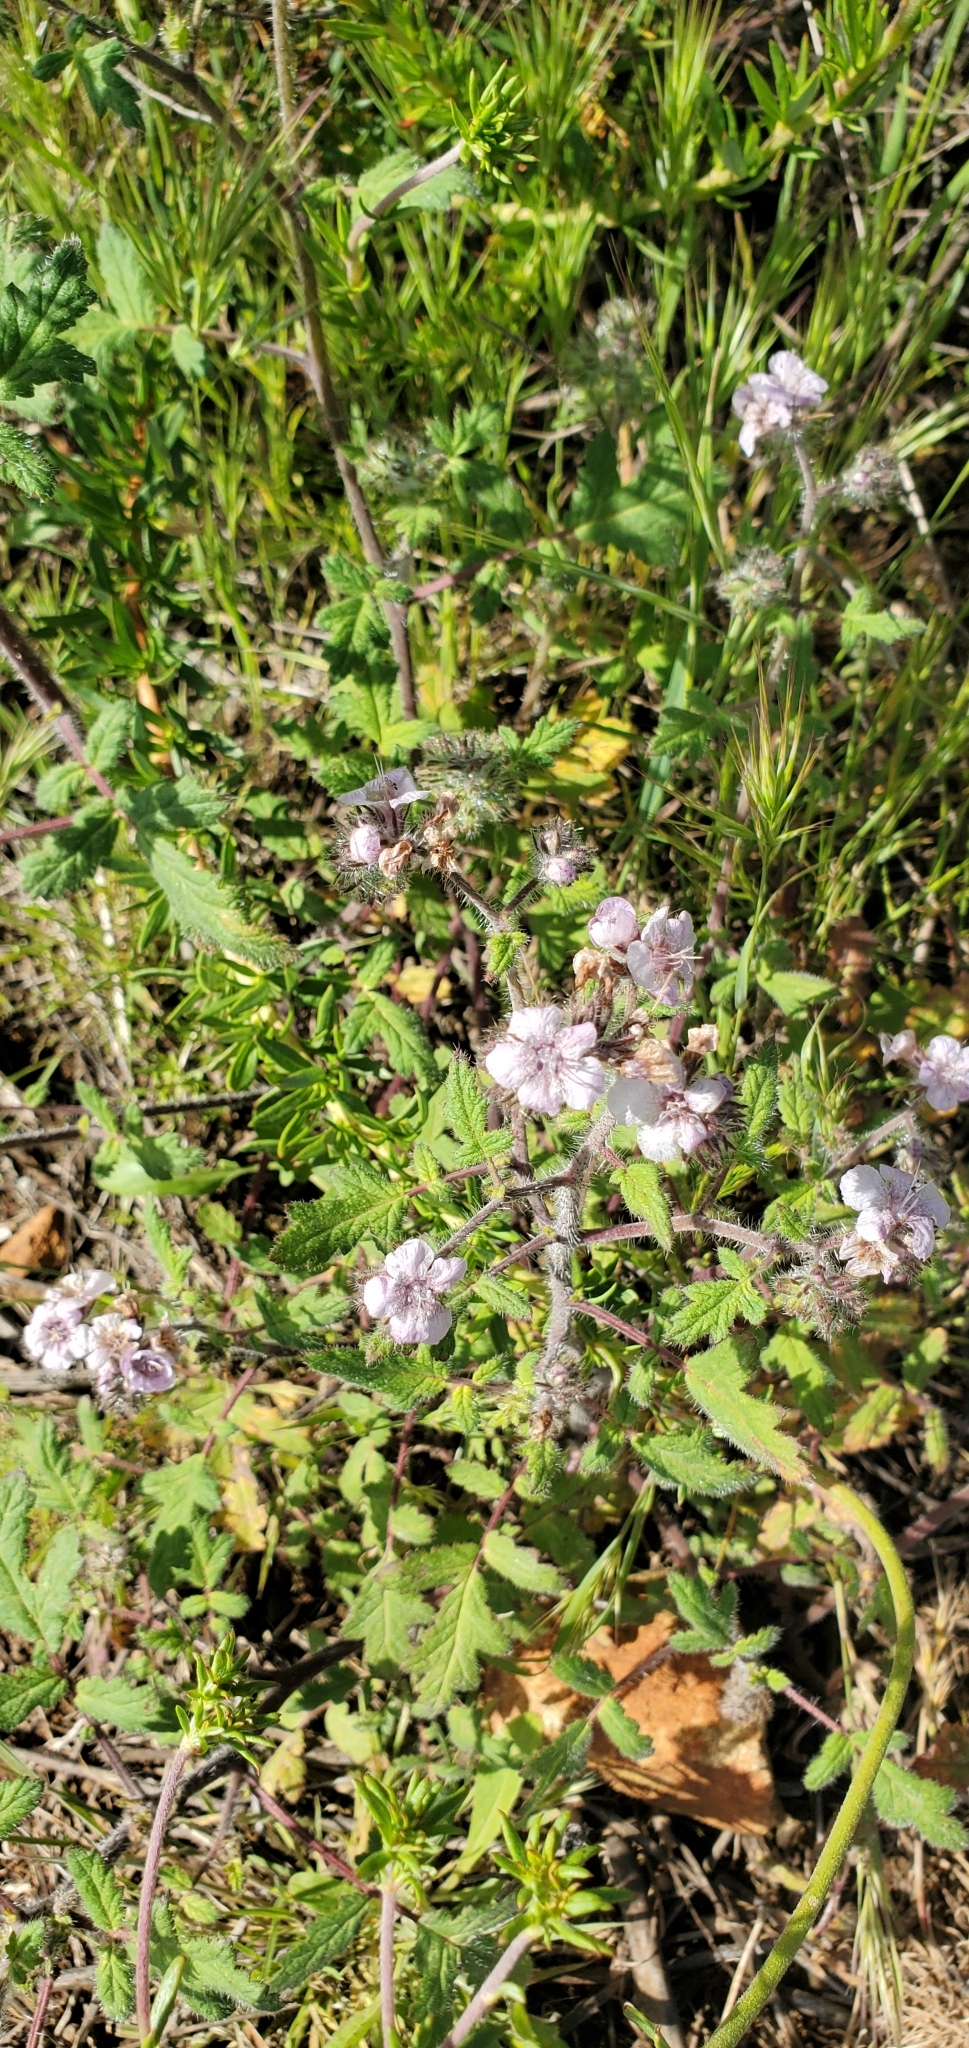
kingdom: Plantae
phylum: Tracheophyta
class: Magnoliopsida
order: Boraginales
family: Hydrophyllaceae
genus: Phacelia
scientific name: Phacelia cicutaria
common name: Caterpillar phacelia
